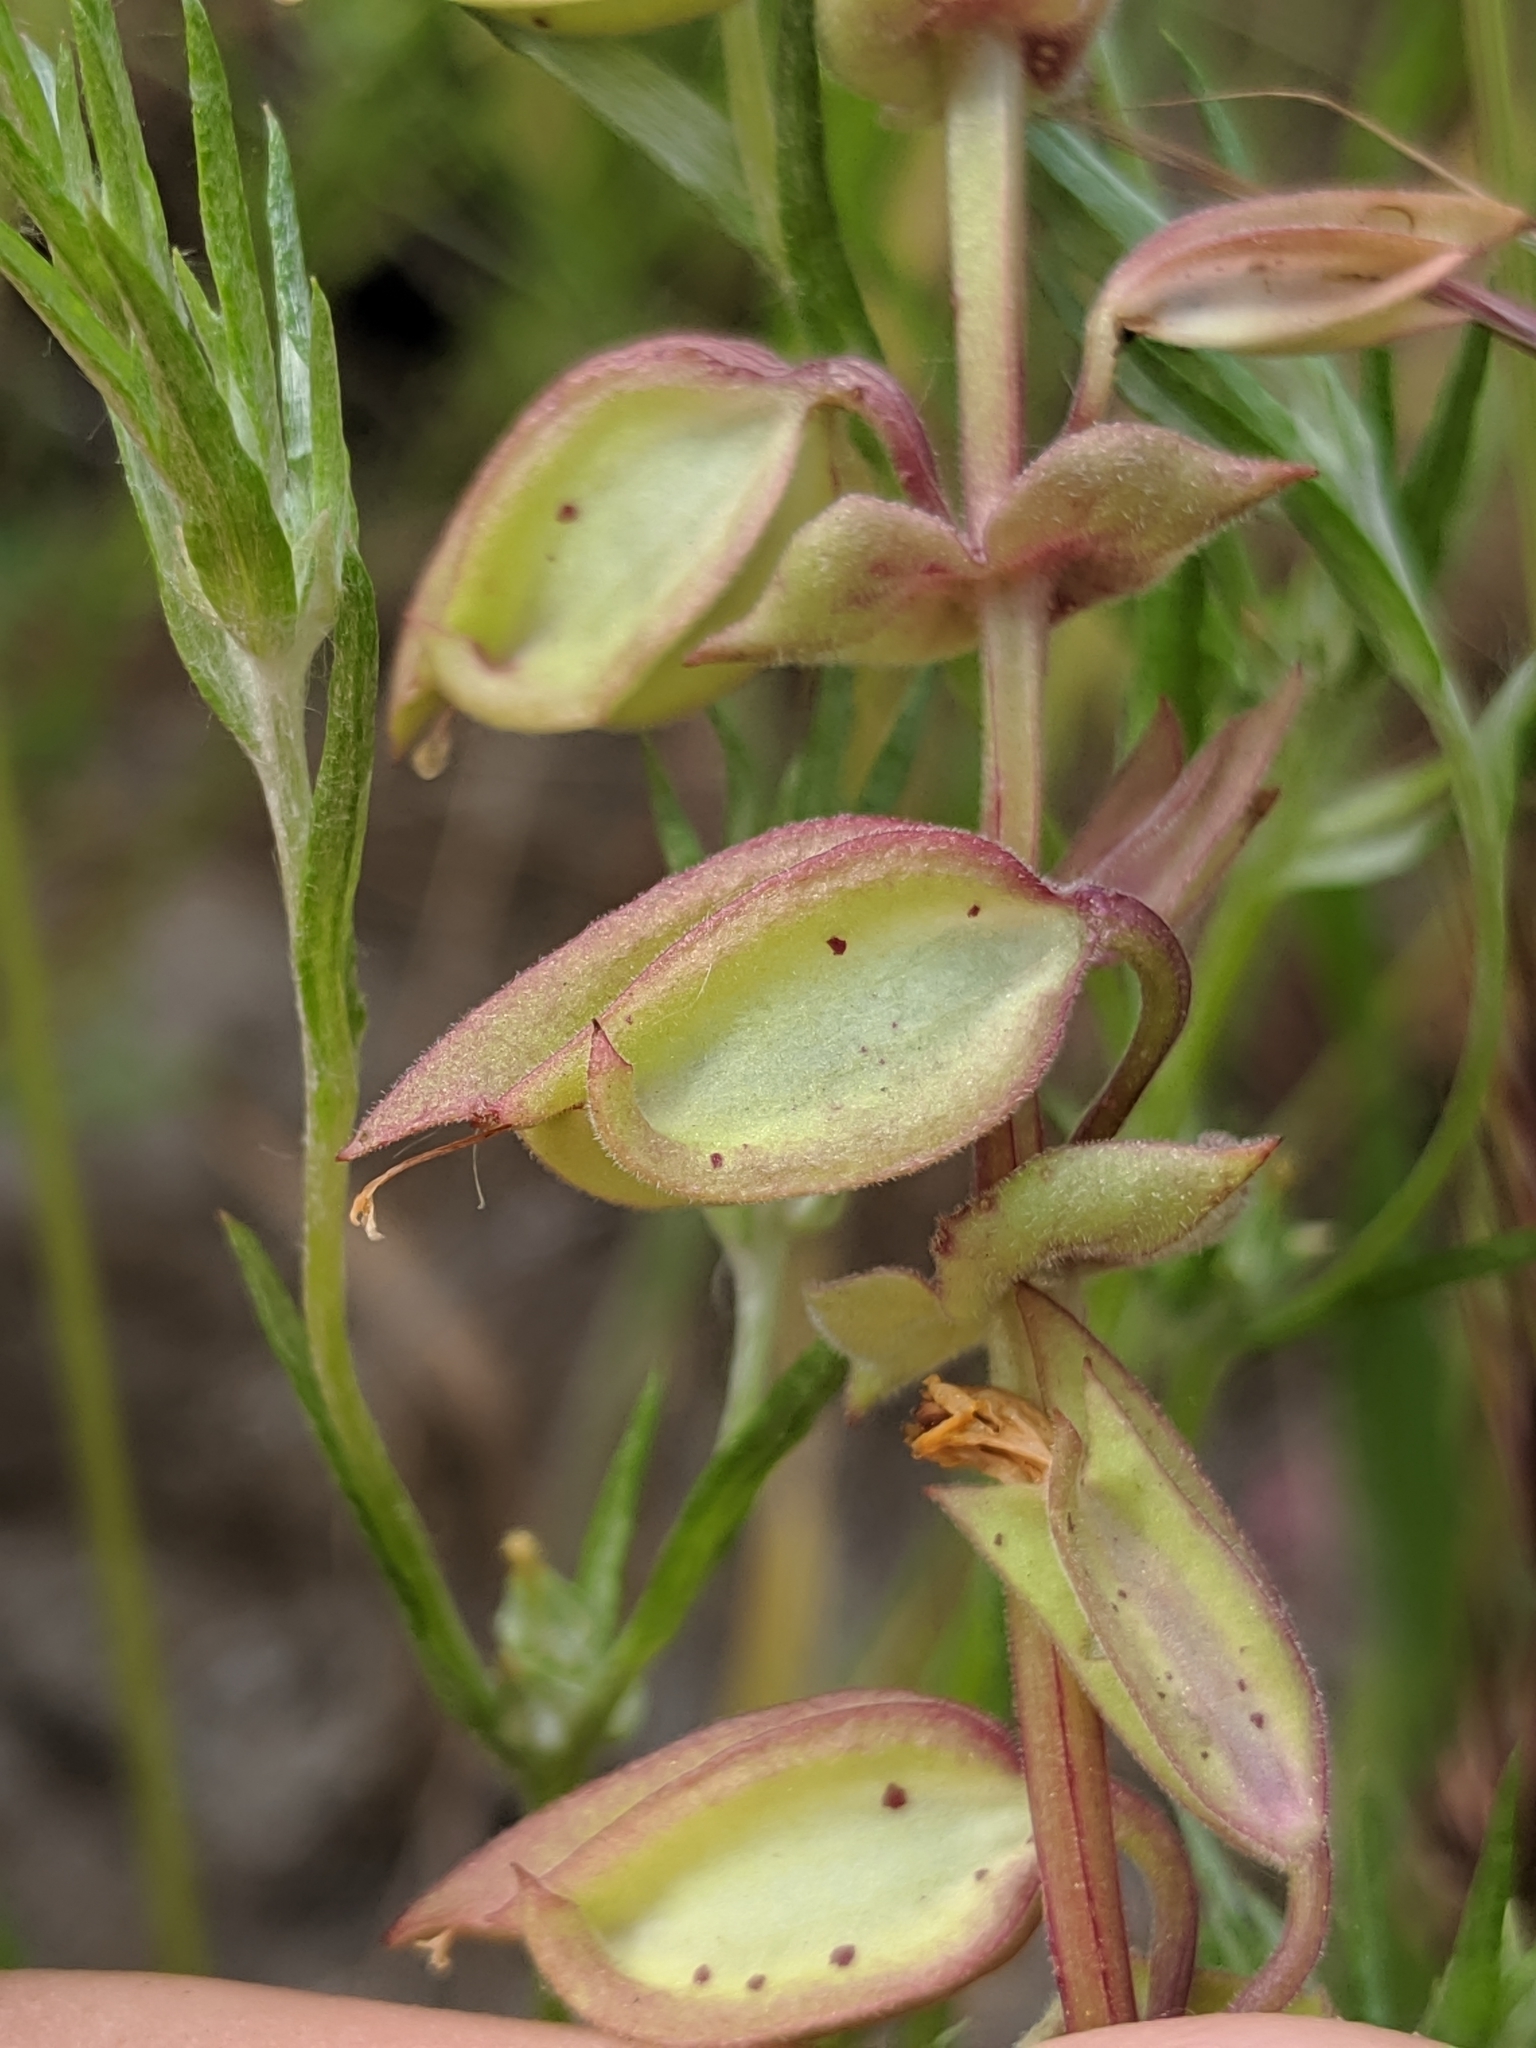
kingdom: Plantae
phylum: Tracheophyta
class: Magnoliopsida
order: Lamiales
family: Phrymaceae
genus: Erythranthe
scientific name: Erythranthe nasuta
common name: Sooke monkeyflower
